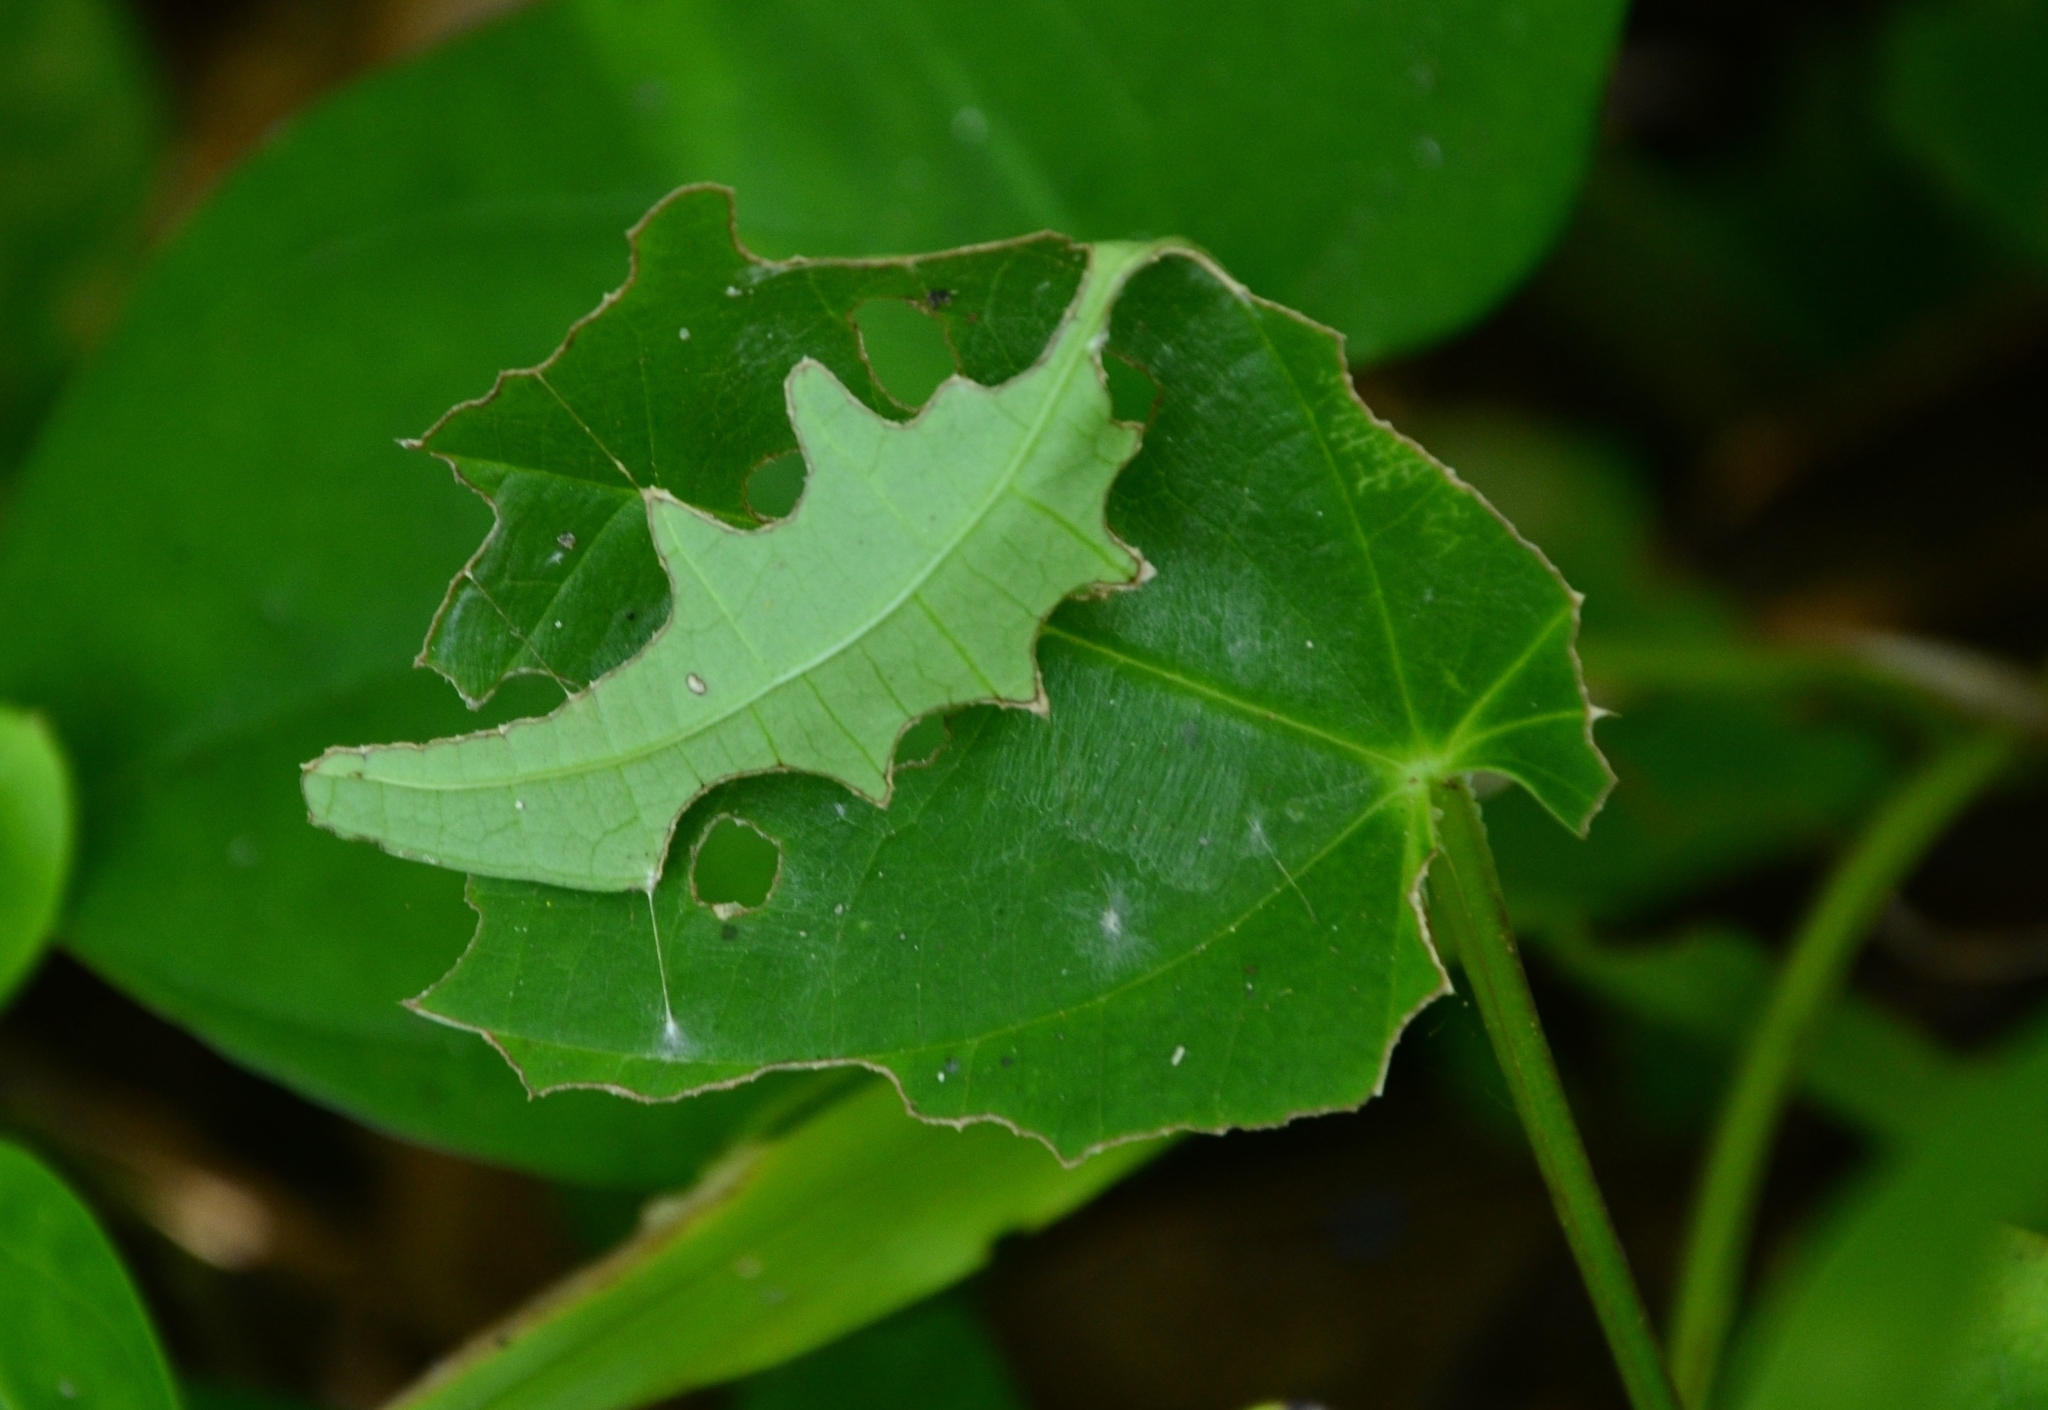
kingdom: Animalia
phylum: Arthropoda
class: Insecta
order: Lepidoptera
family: Hesperiidae
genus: Tagiades
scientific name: Tagiades litigiosa
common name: Water snow flat
